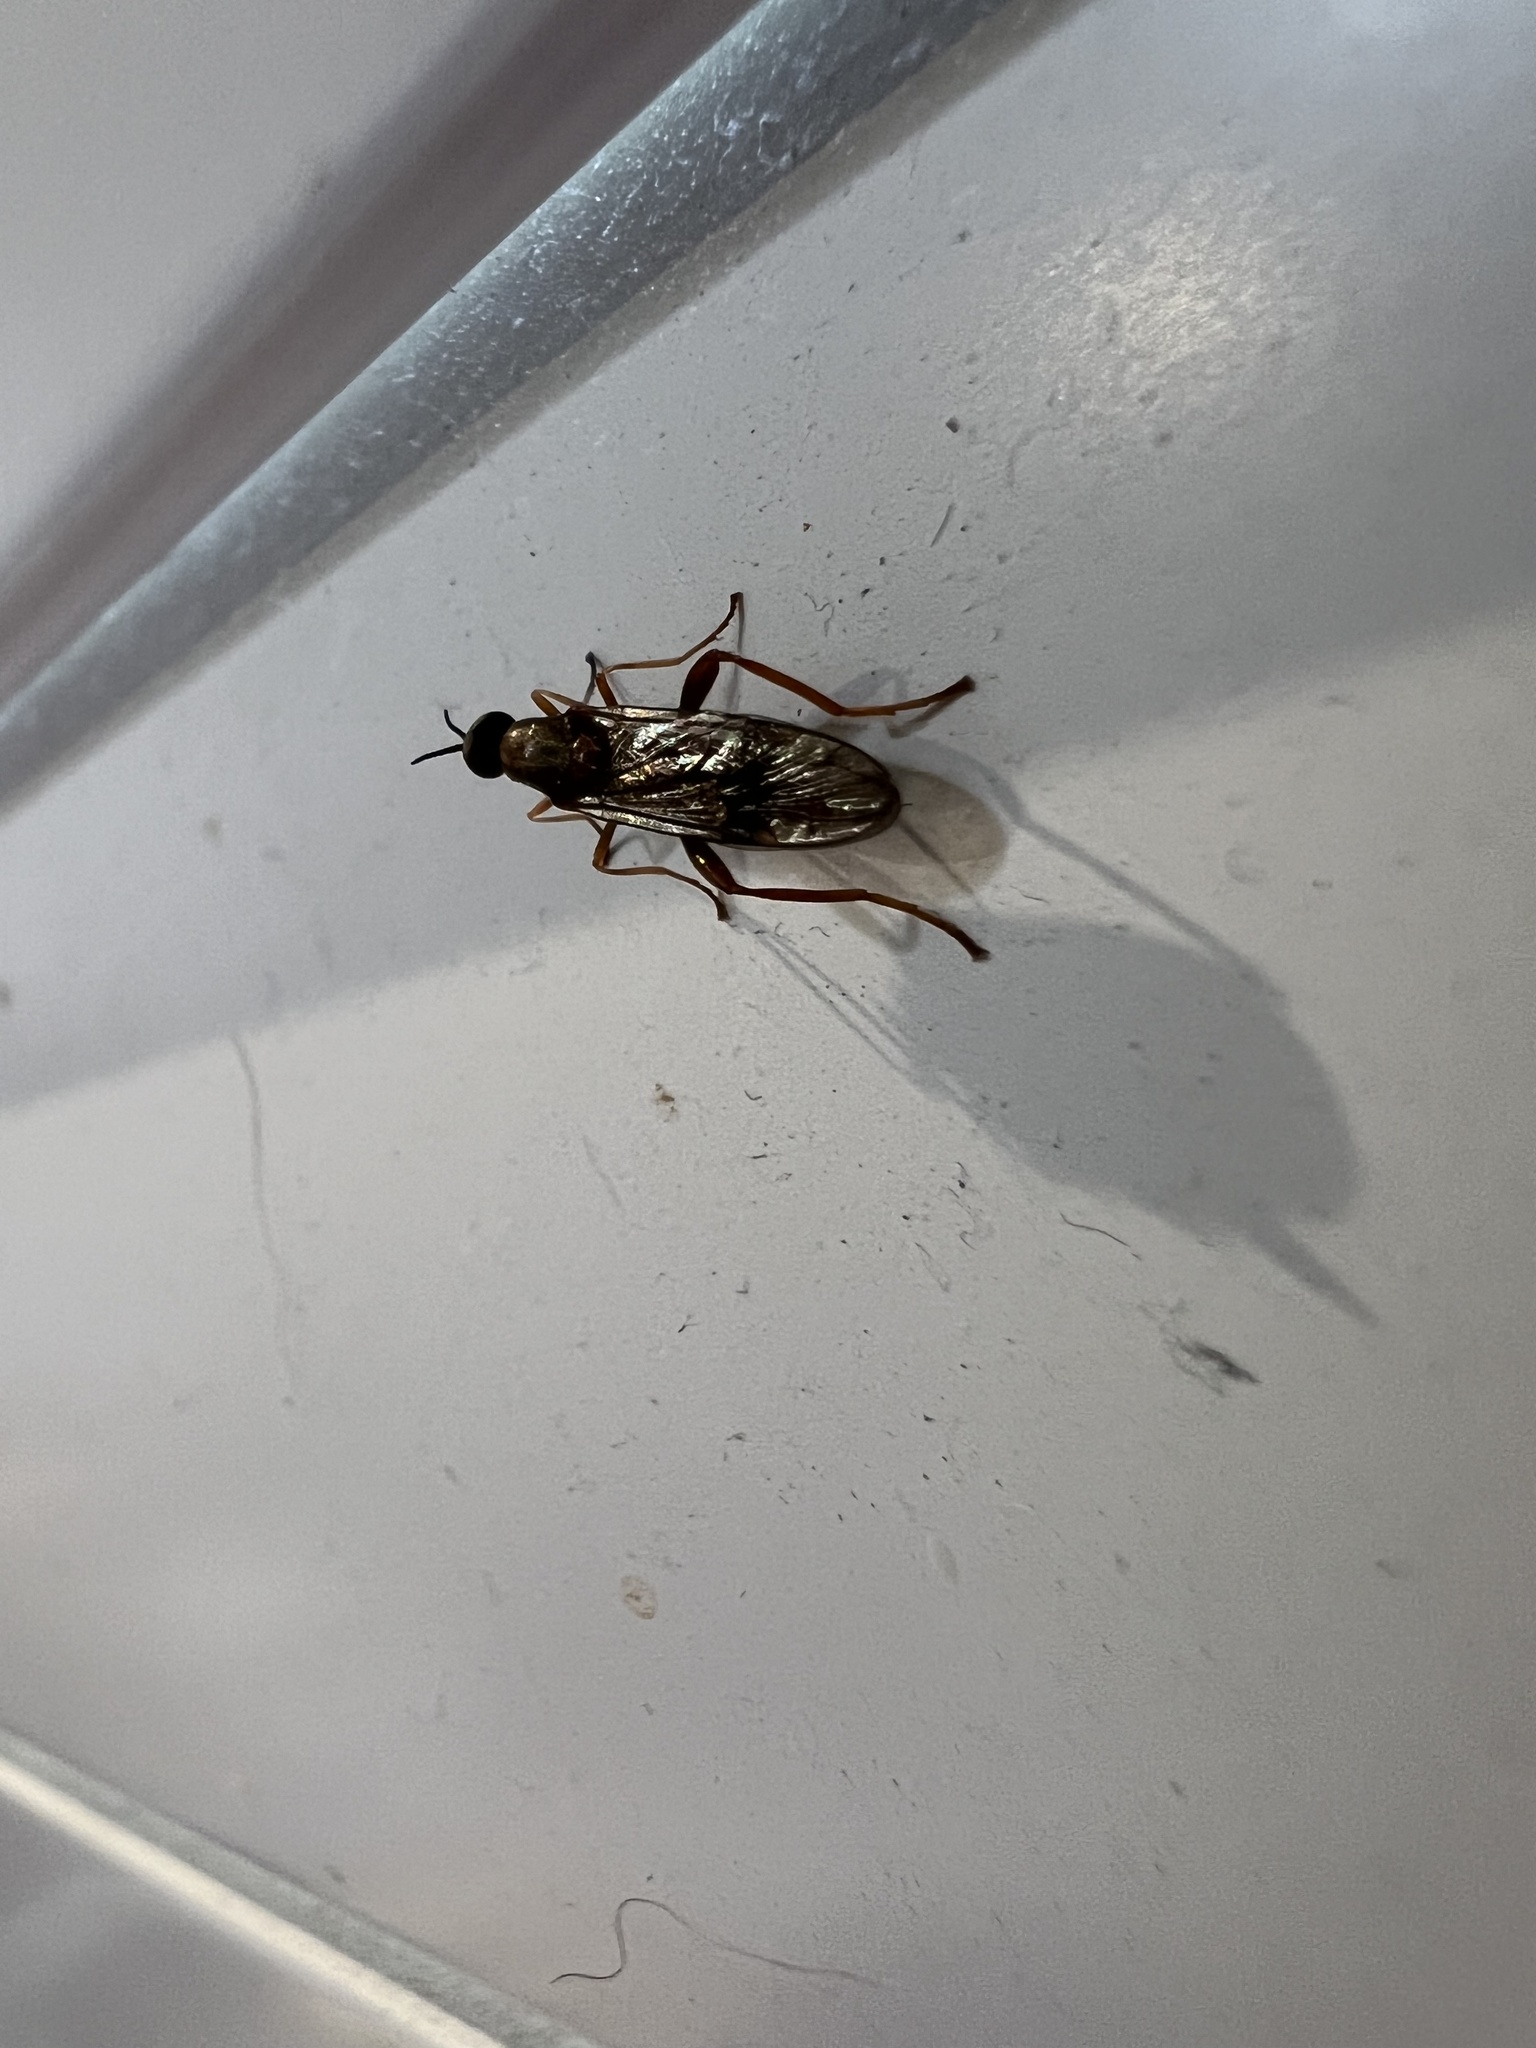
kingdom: Animalia
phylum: Arthropoda
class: Insecta
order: Diptera
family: Stratiomyidae
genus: Exaireta
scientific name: Exaireta spinigera
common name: Blue soldier fly
